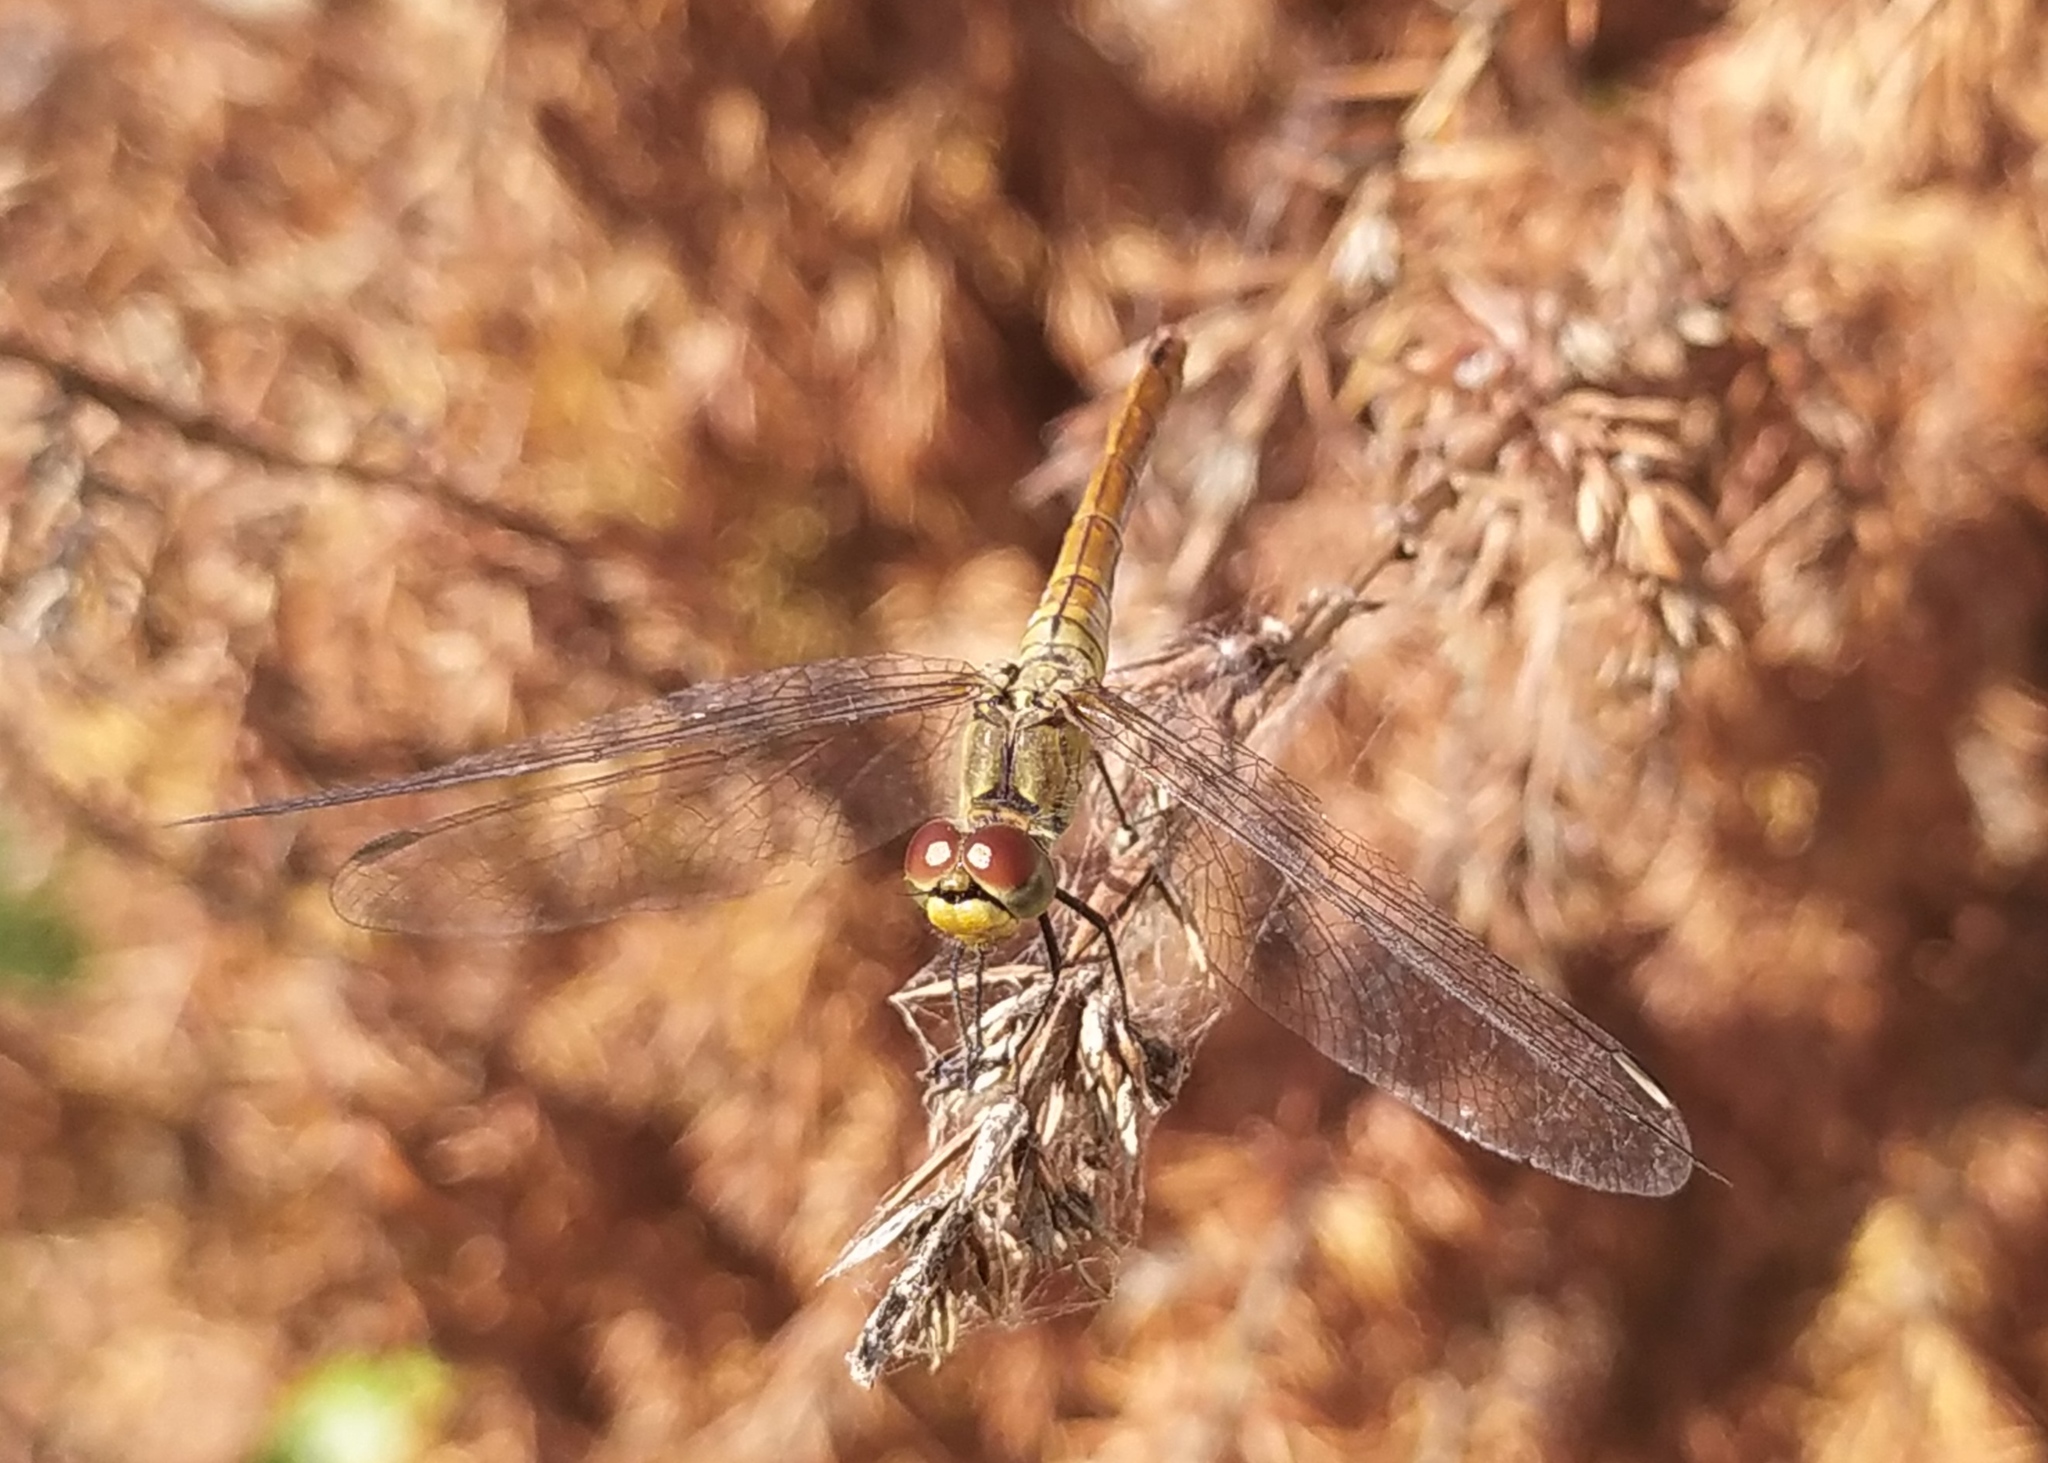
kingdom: Animalia
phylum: Arthropoda
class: Insecta
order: Odonata
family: Libellulidae
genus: Sympetrum
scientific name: Sympetrum sanguineum
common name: Ruddy darter
